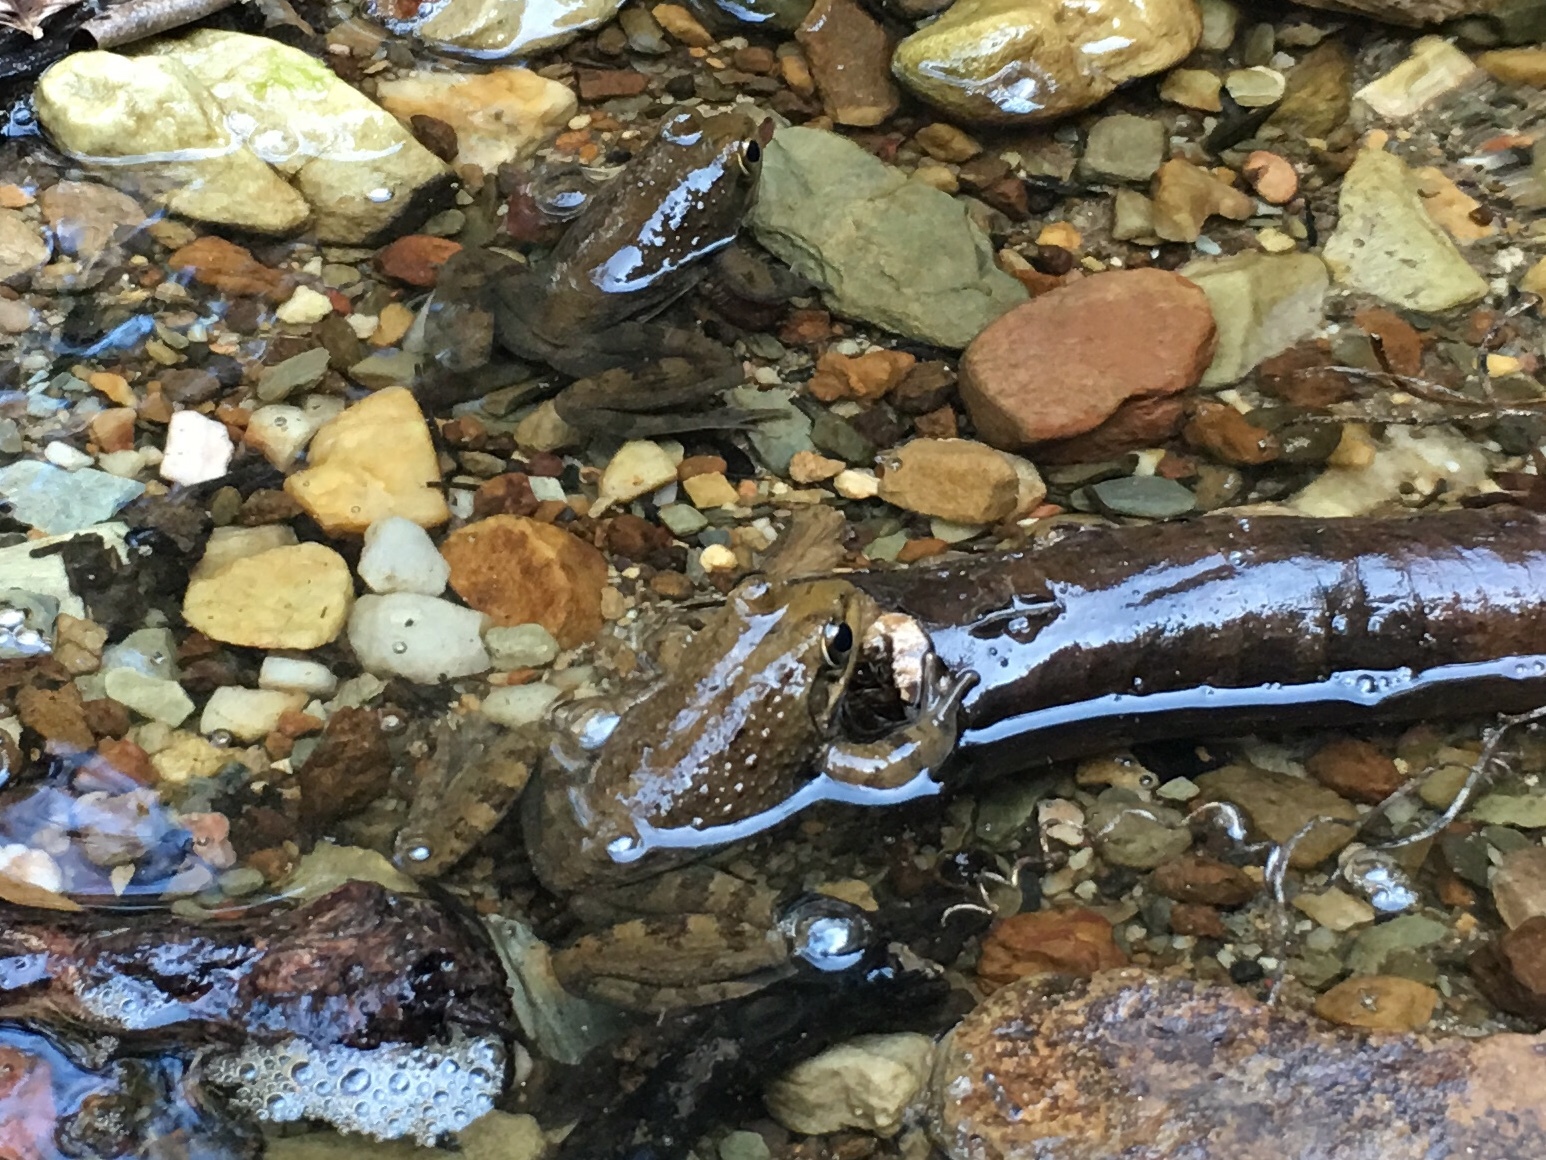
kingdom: Animalia
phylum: Chordata
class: Amphibia
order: Anura
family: Pyxicephalidae
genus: Amietia
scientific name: Amietia fuscigula
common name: Cape rana
